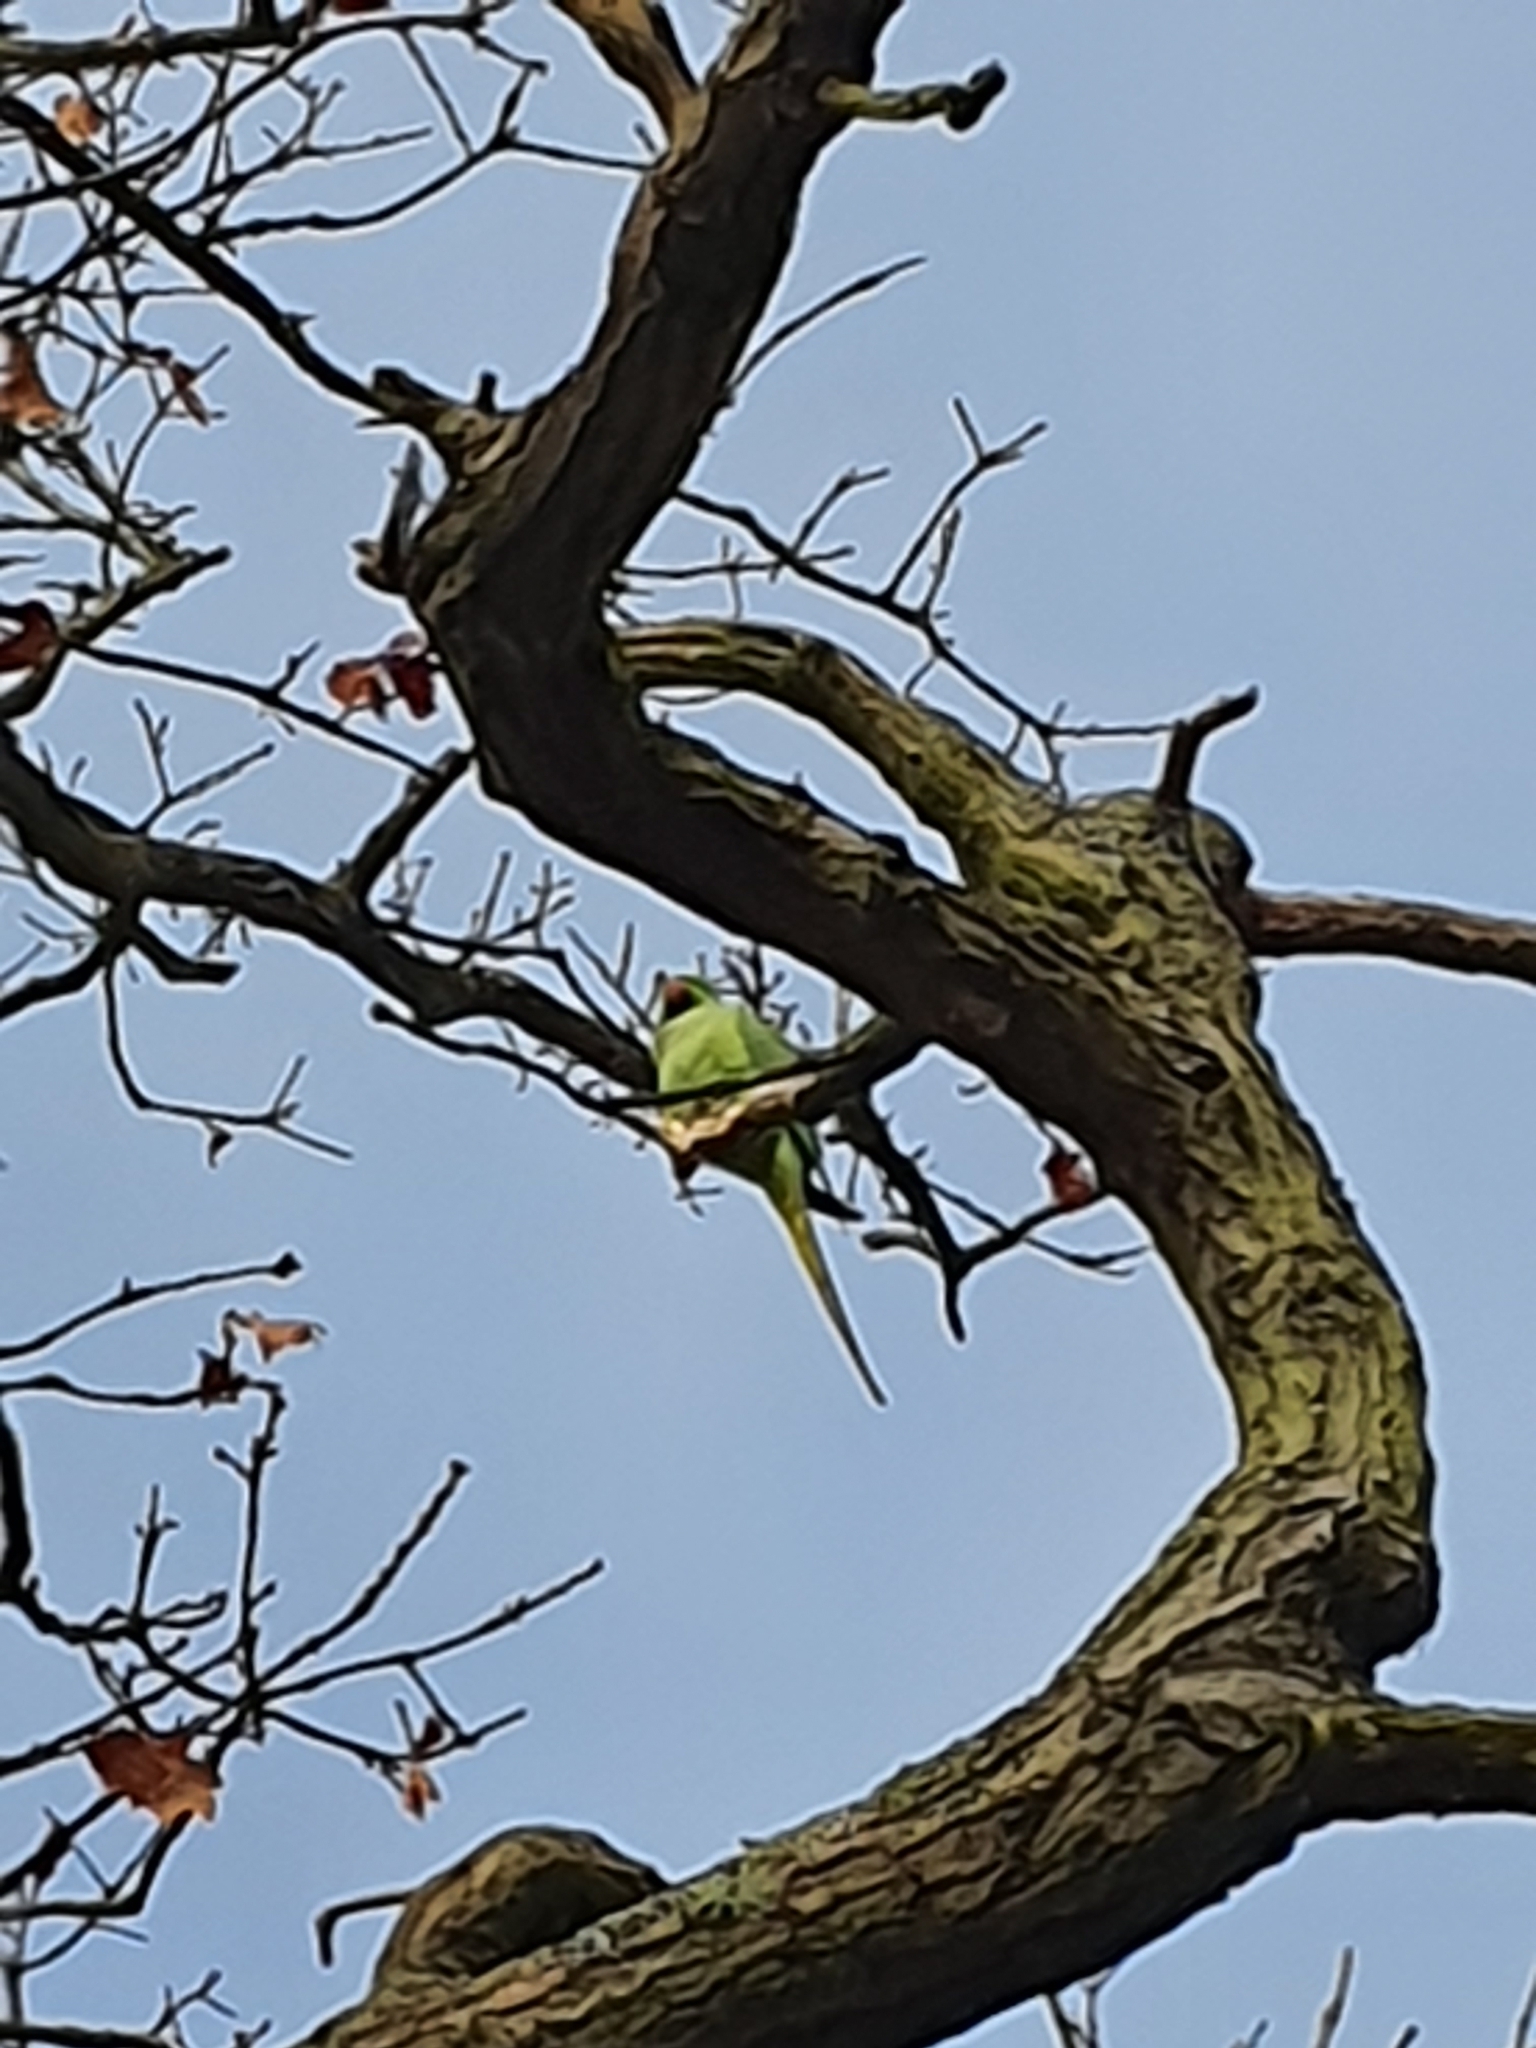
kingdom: Animalia
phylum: Chordata
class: Aves
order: Psittaciformes
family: Psittacidae
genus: Psittacula
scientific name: Psittacula krameri
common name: Rose-ringed parakeet
